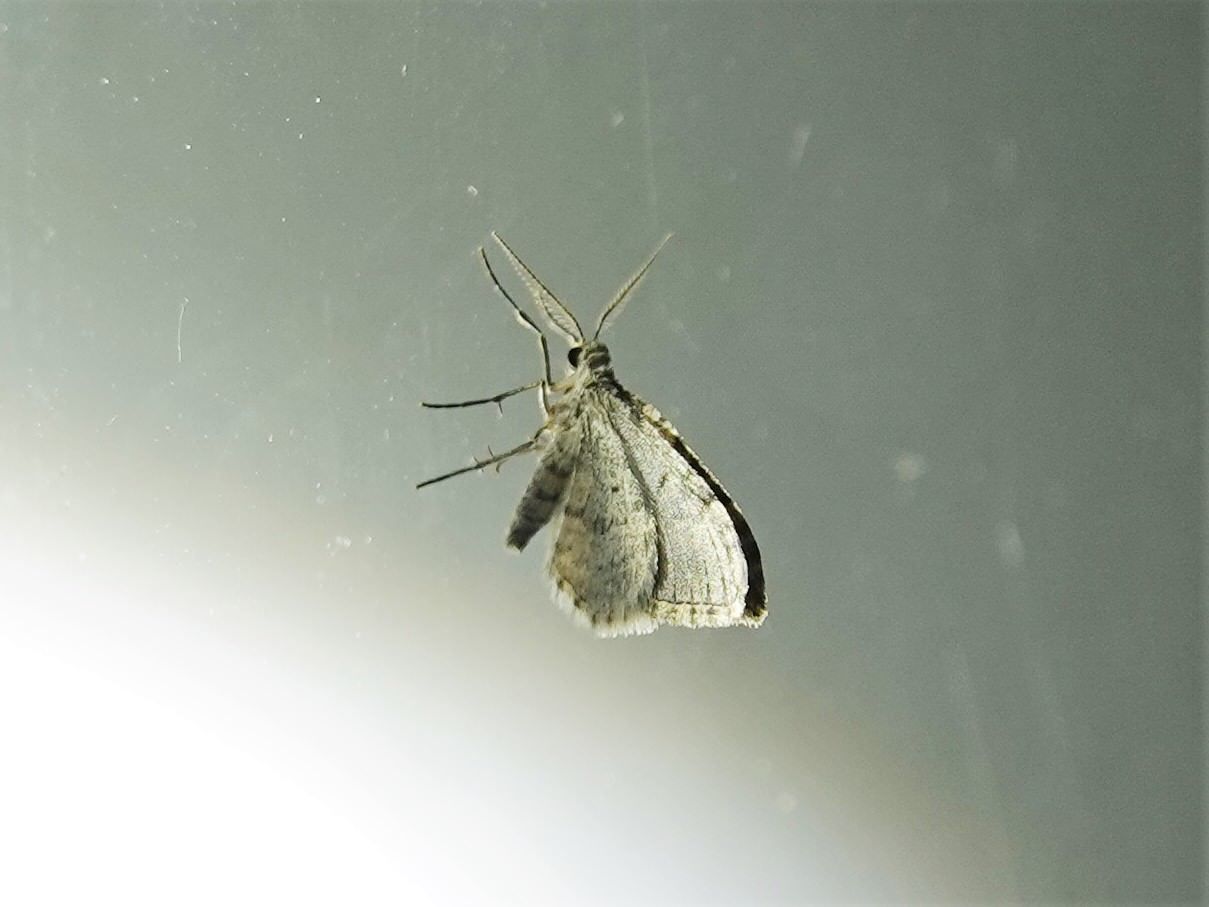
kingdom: Animalia
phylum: Arthropoda
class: Insecta
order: Lepidoptera
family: Geometridae
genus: Helastia
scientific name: Helastia cinerearia
